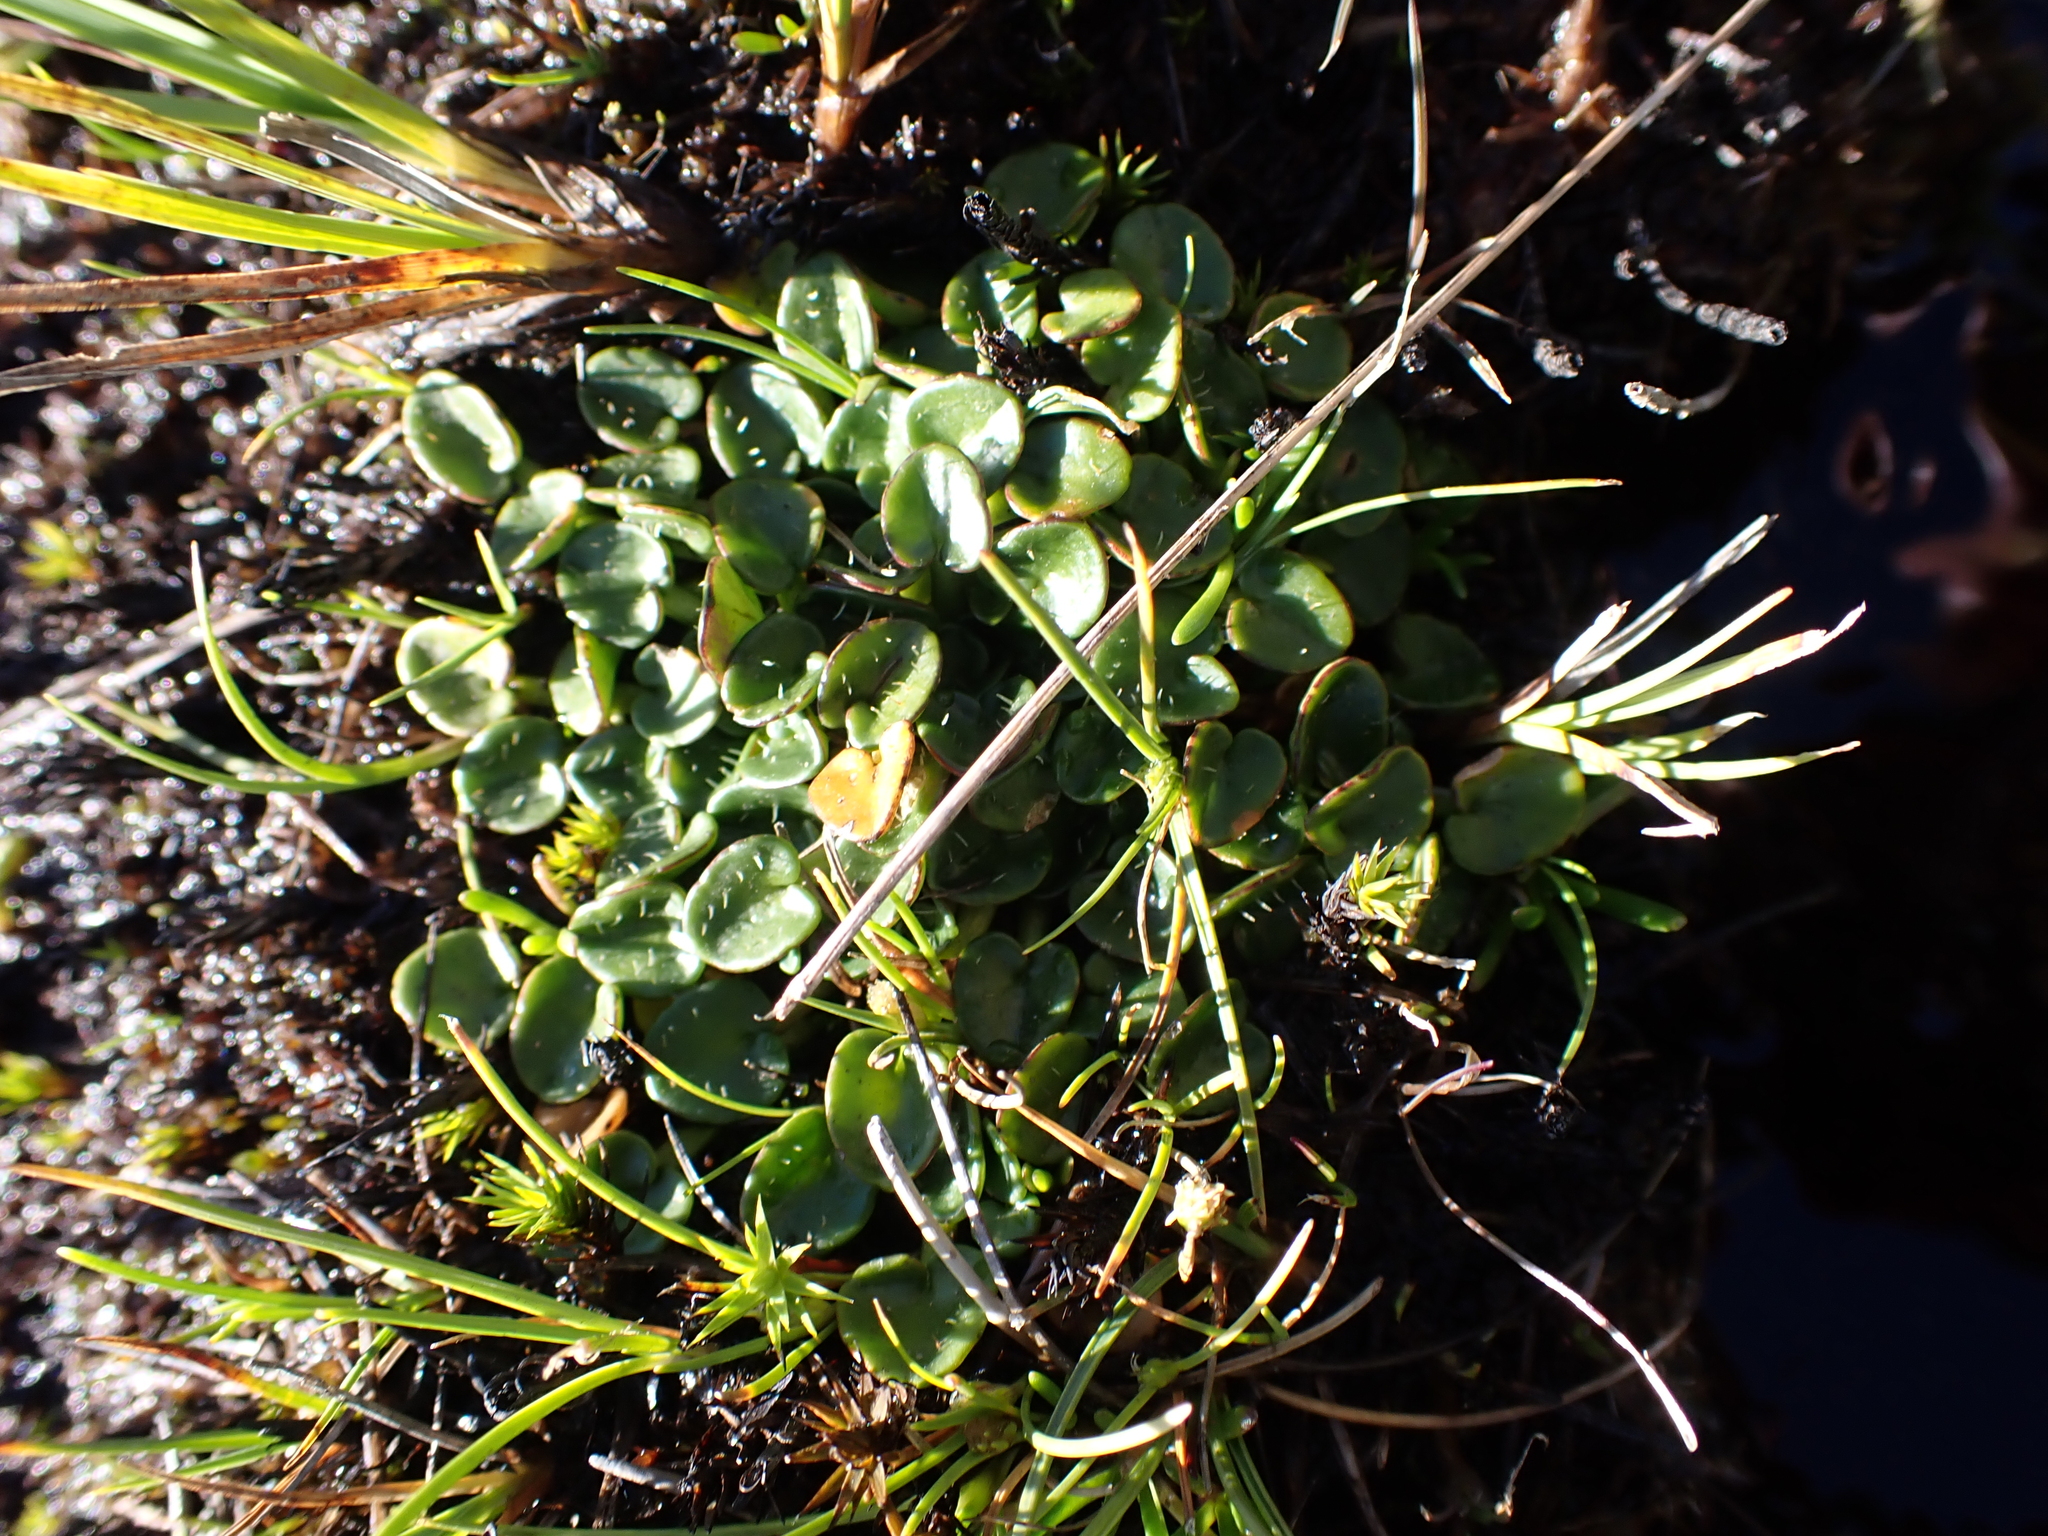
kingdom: Plantae
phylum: Tracheophyta
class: Magnoliopsida
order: Apiales
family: Apiaceae
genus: Diplaspis
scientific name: Diplaspis nivis
